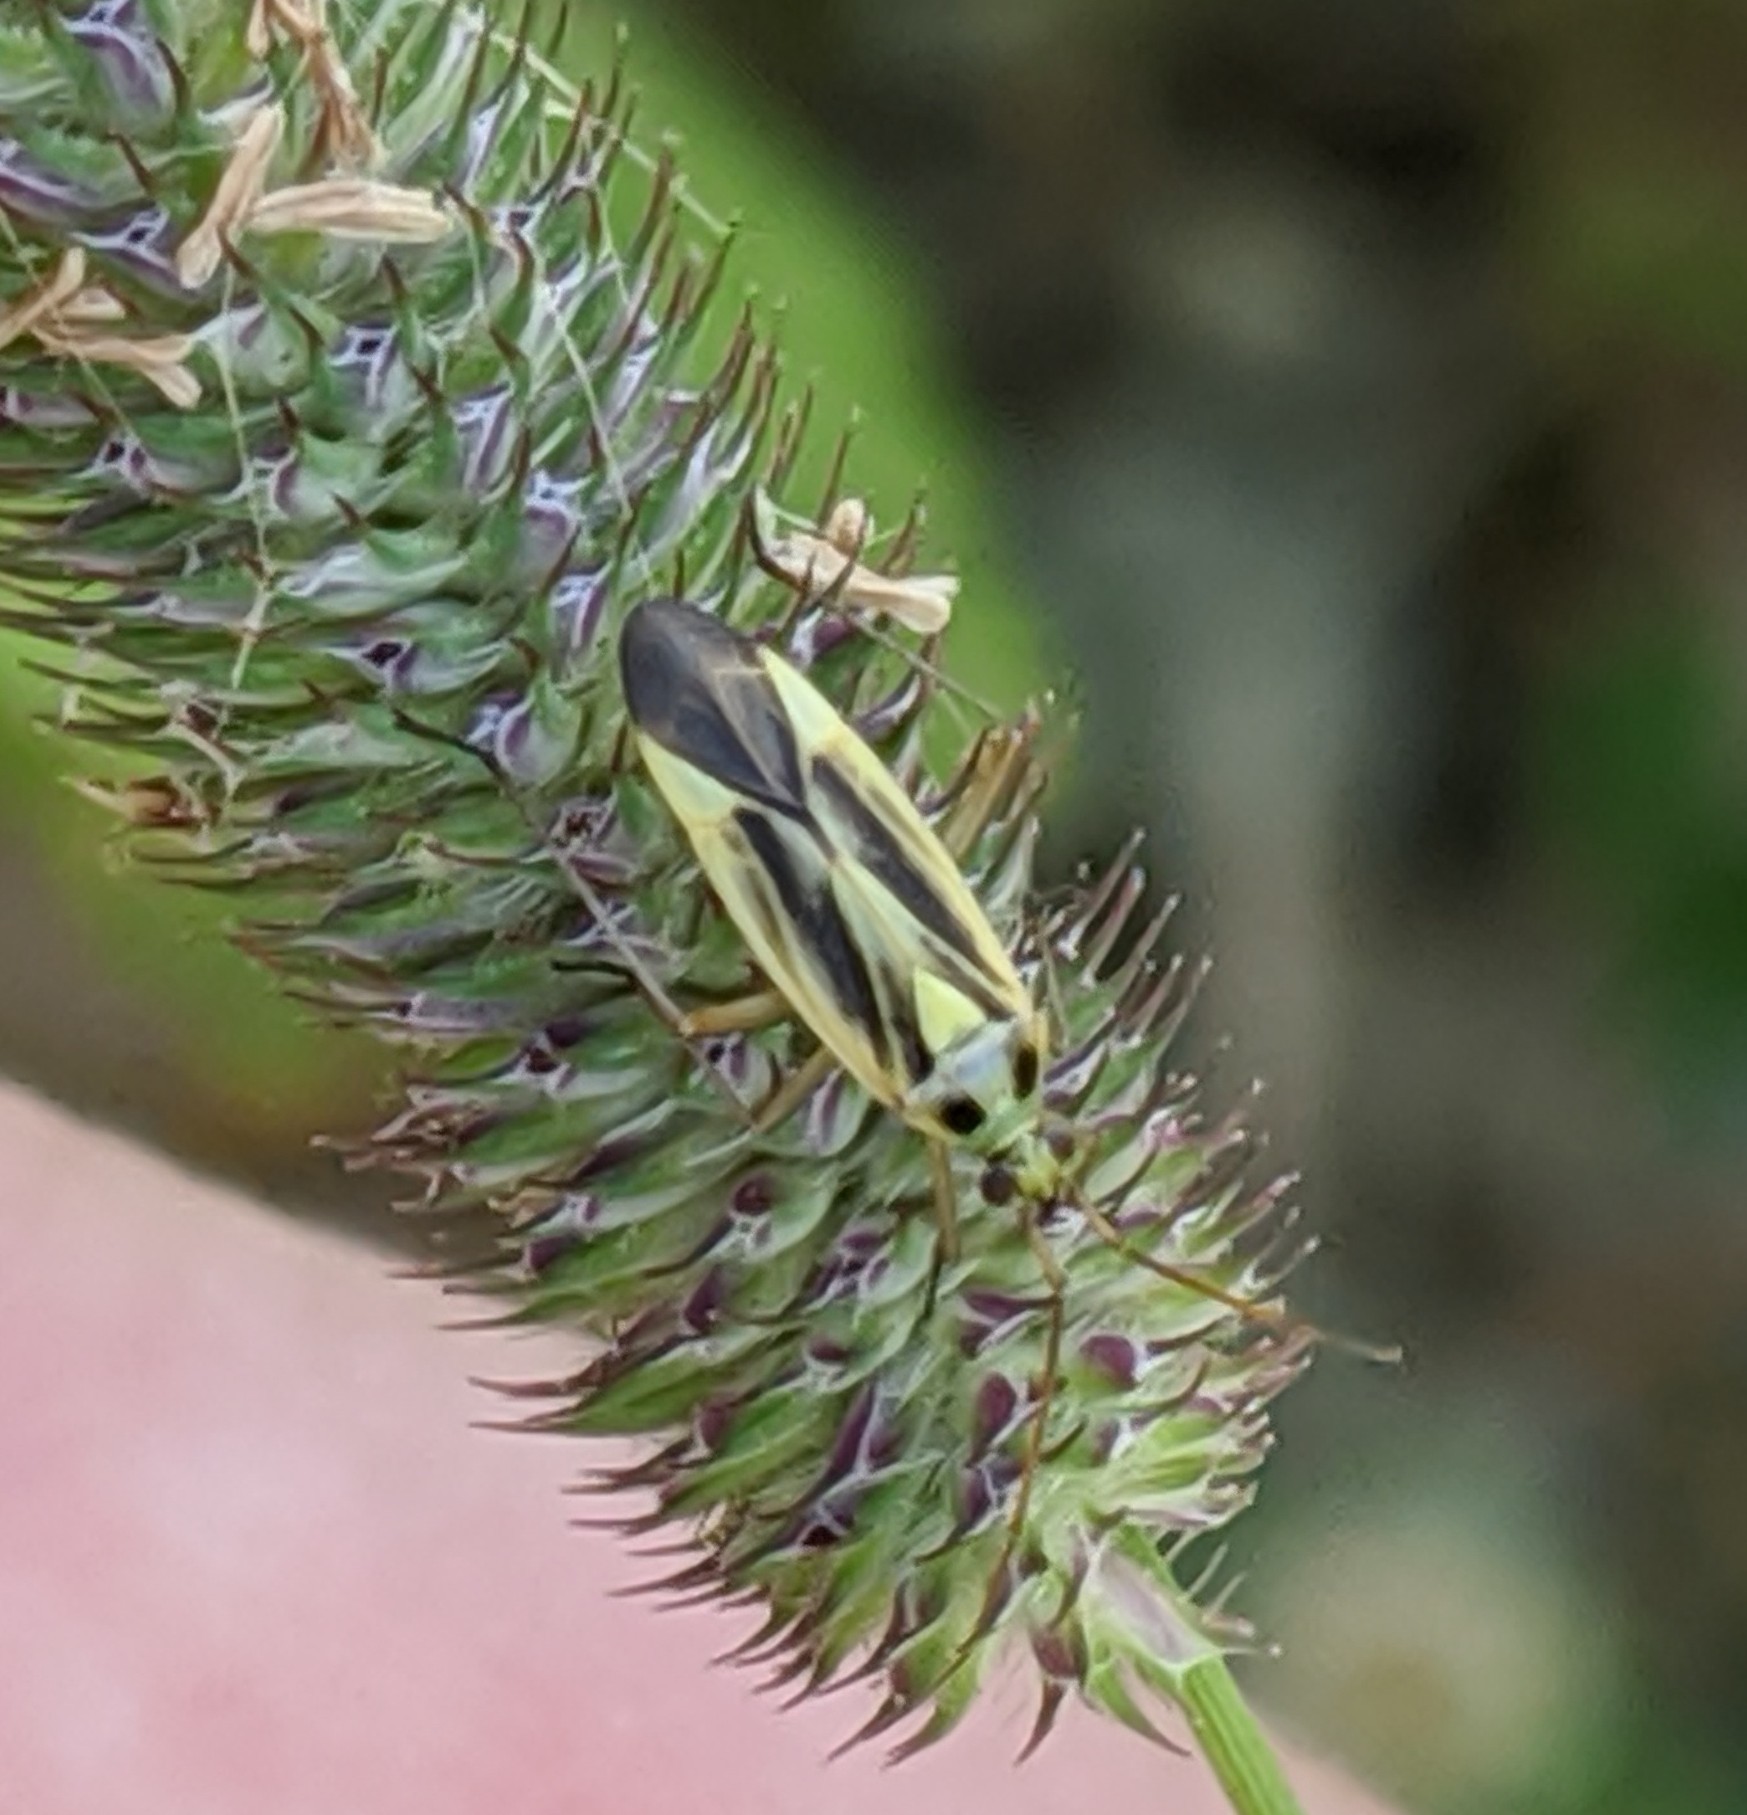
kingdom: Animalia
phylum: Arthropoda
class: Insecta
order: Hemiptera
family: Miridae
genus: Stenotus
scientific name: Stenotus binotatus
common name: Plant bug
